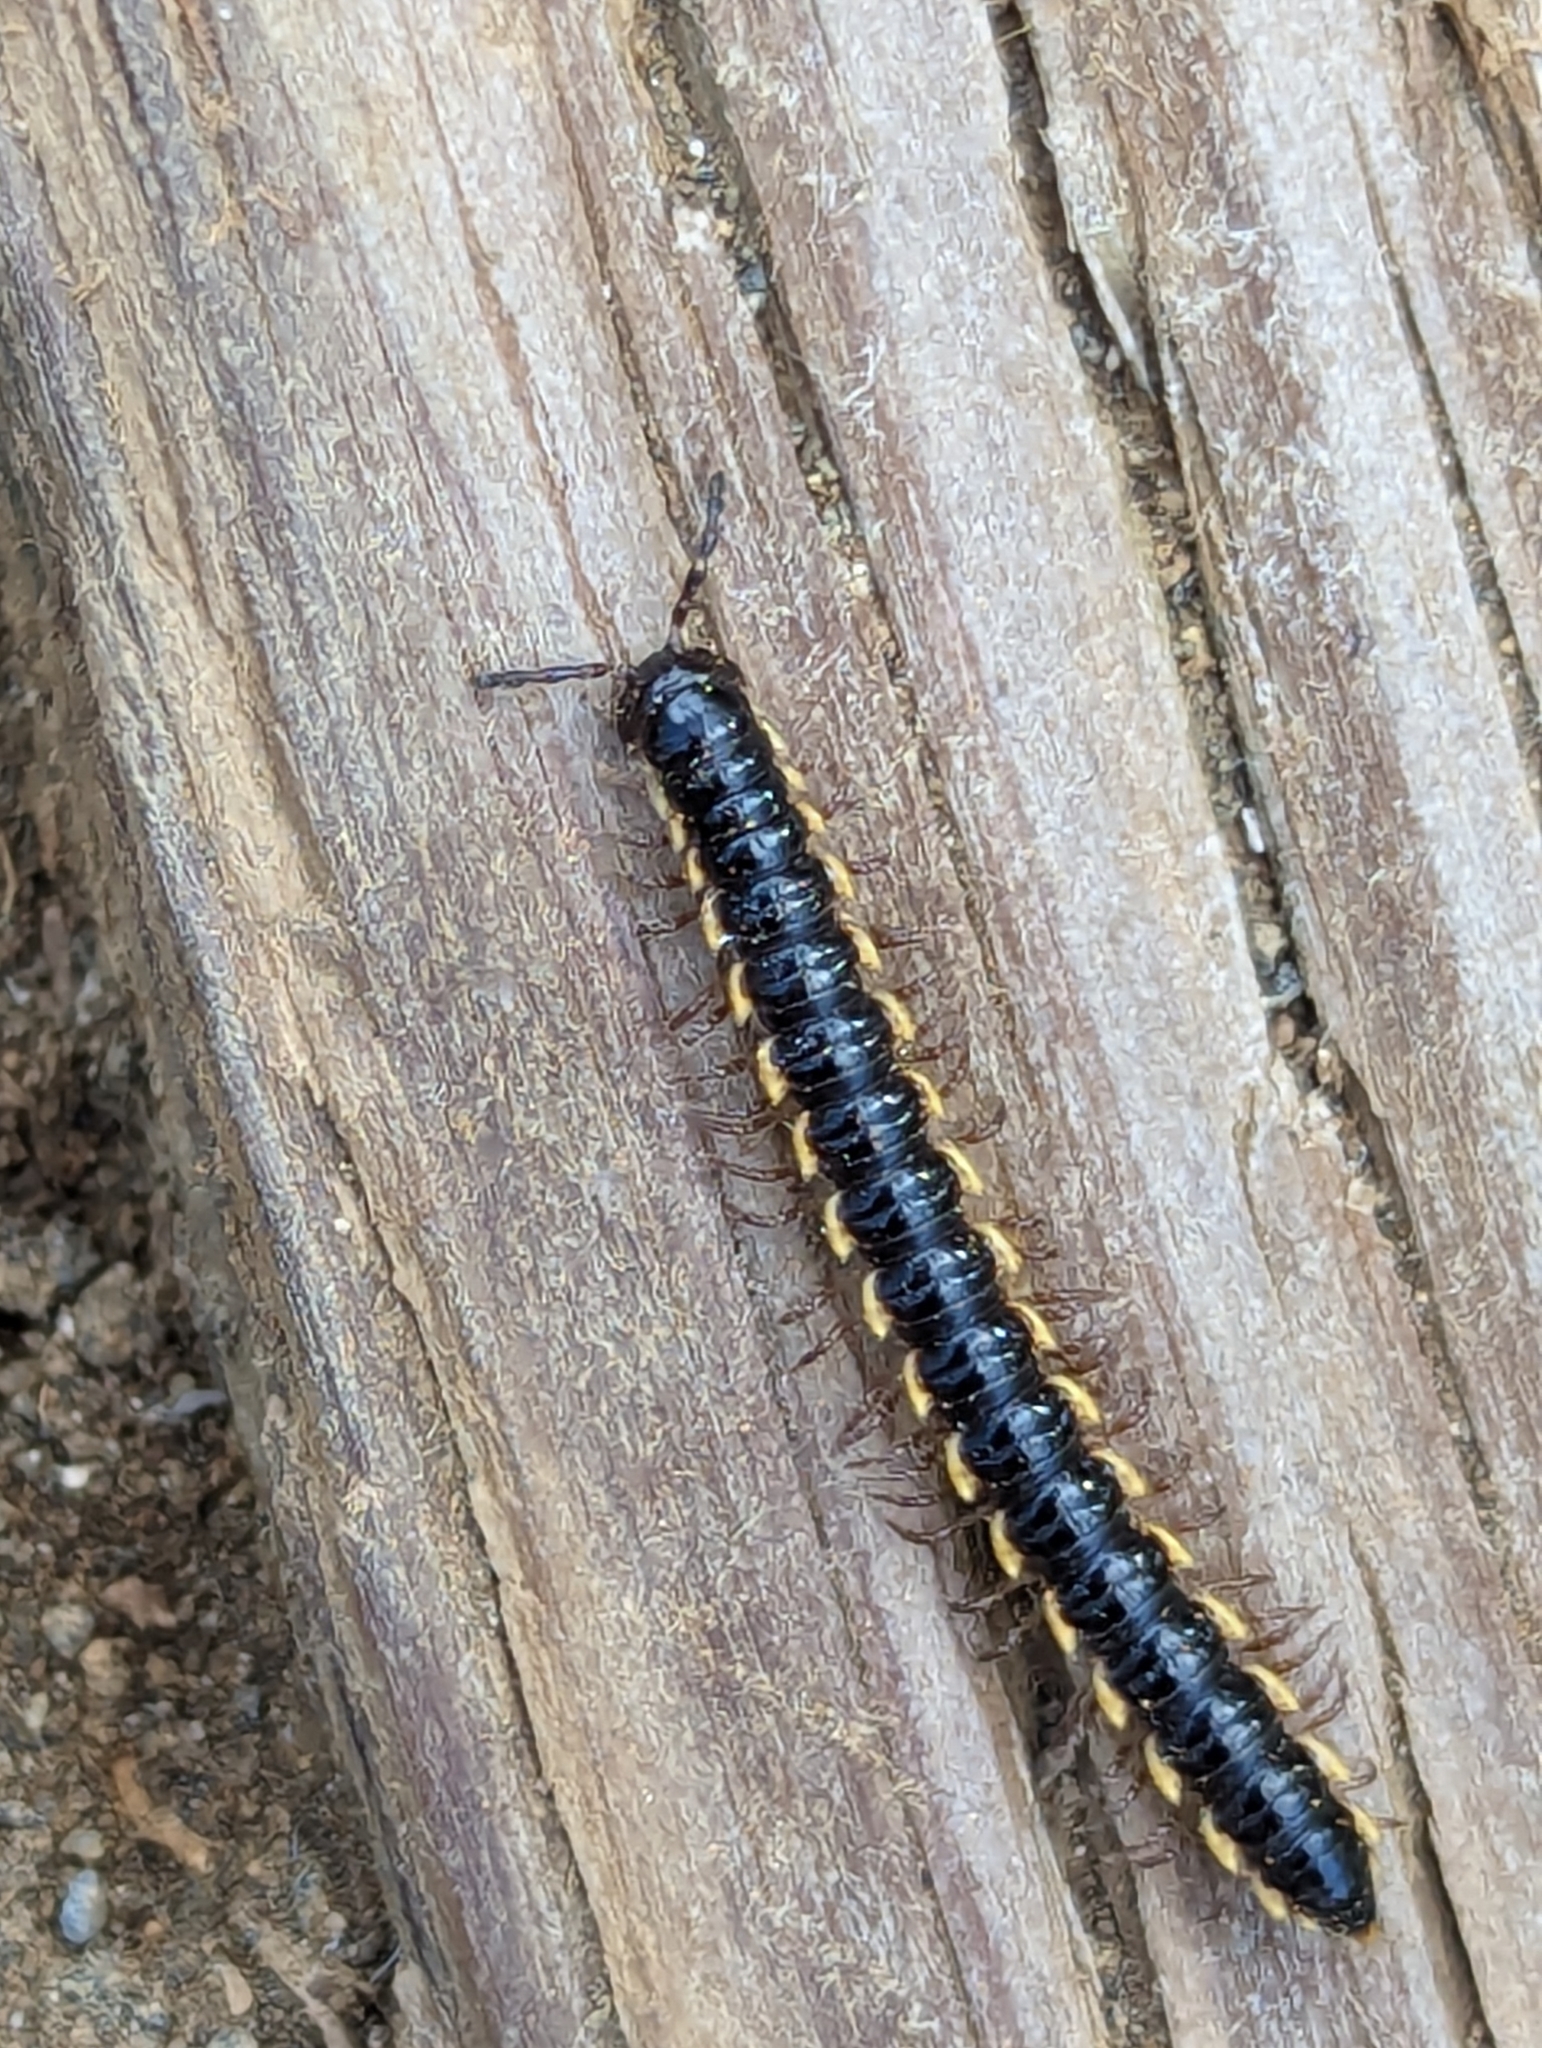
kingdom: Animalia
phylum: Arthropoda
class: Diplopoda
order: Polydesmida
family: Paradoxosomatidae
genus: Orthomorpha
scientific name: Orthomorpha coarctata
